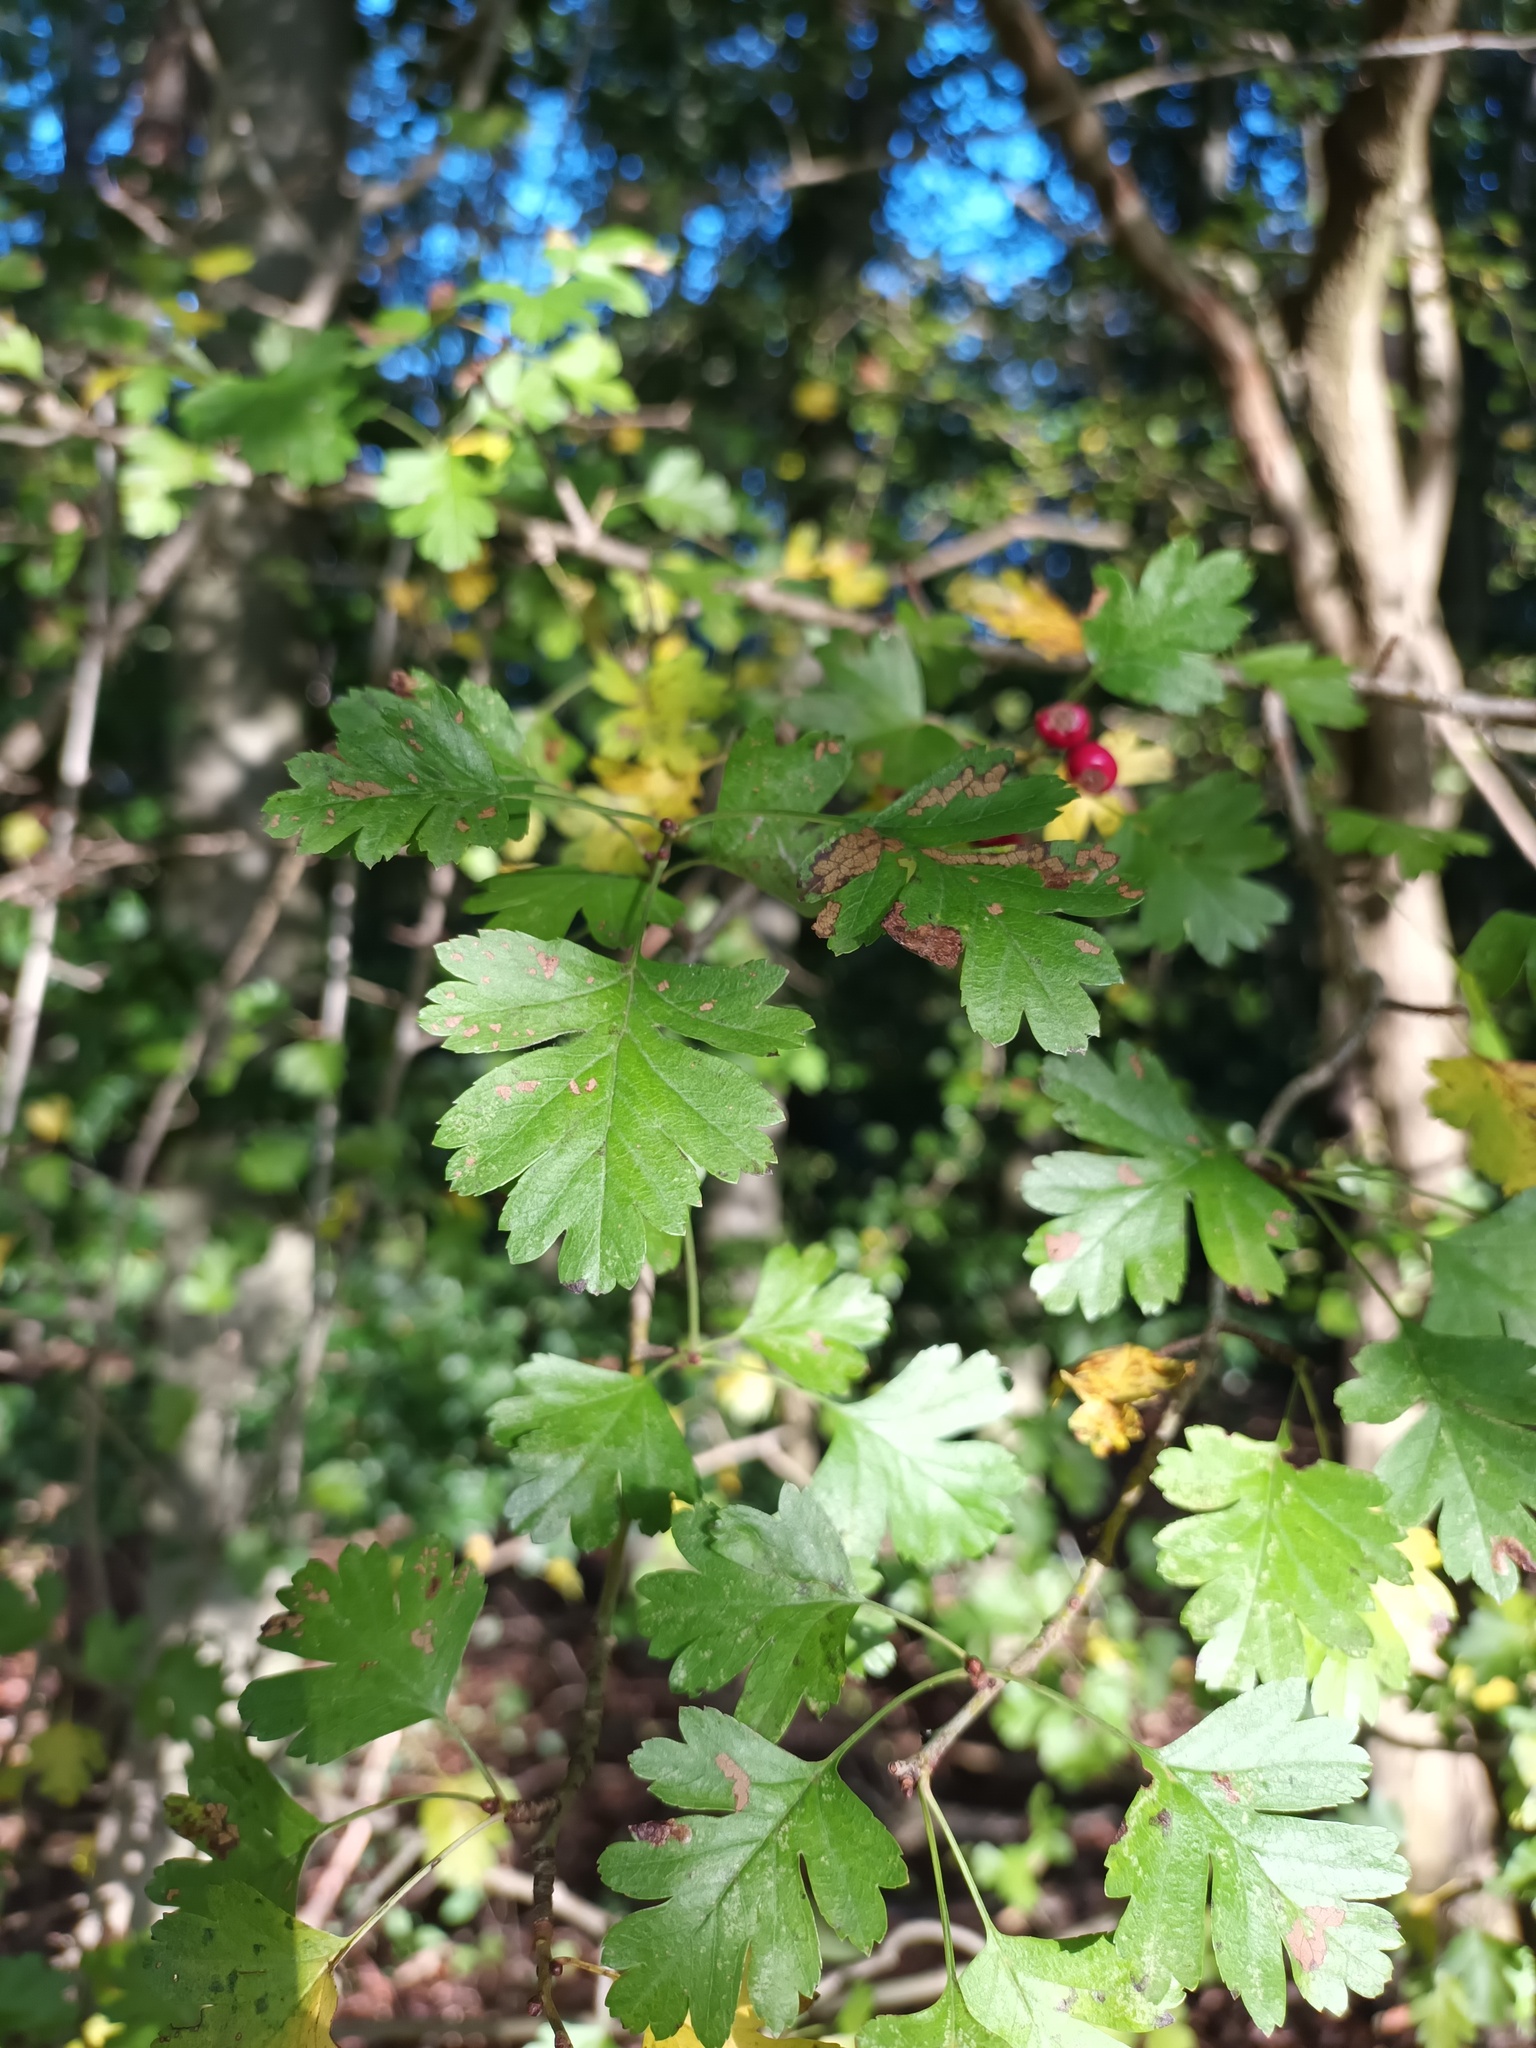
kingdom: Plantae
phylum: Tracheophyta
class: Magnoliopsida
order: Rosales
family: Rosaceae
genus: Crataegus
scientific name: Crataegus monogyna
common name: Hawthorn
